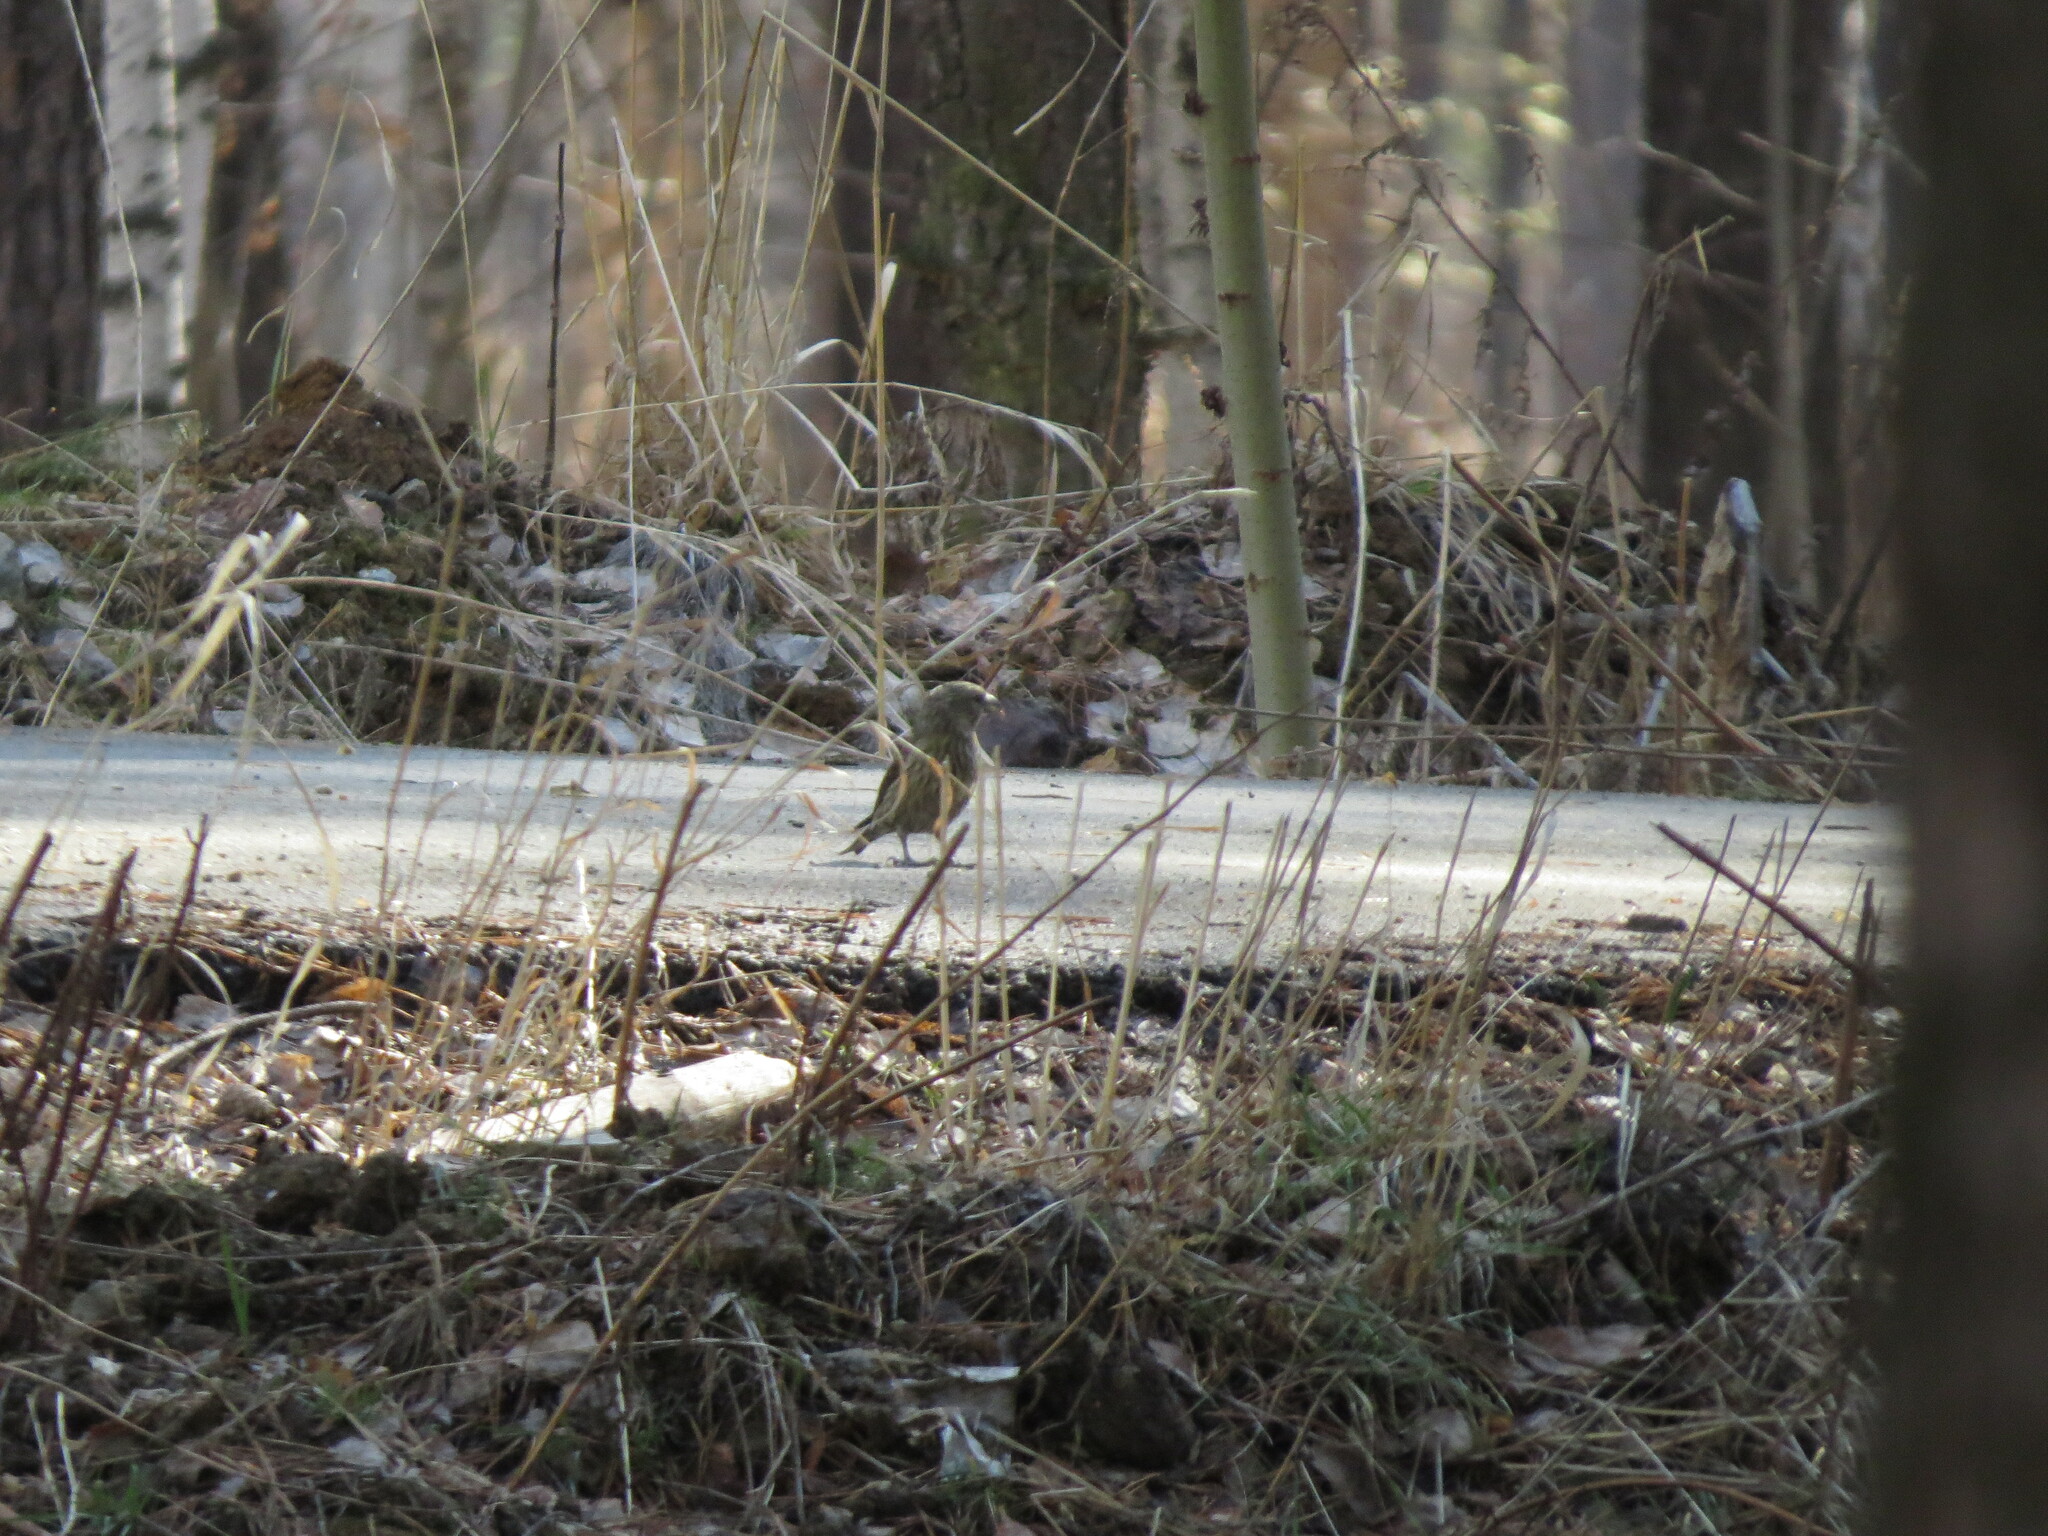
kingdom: Animalia
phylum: Chordata
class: Aves
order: Passeriformes
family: Fringillidae
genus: Loxia
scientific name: Loxia curvirostra
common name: Red crossbill
